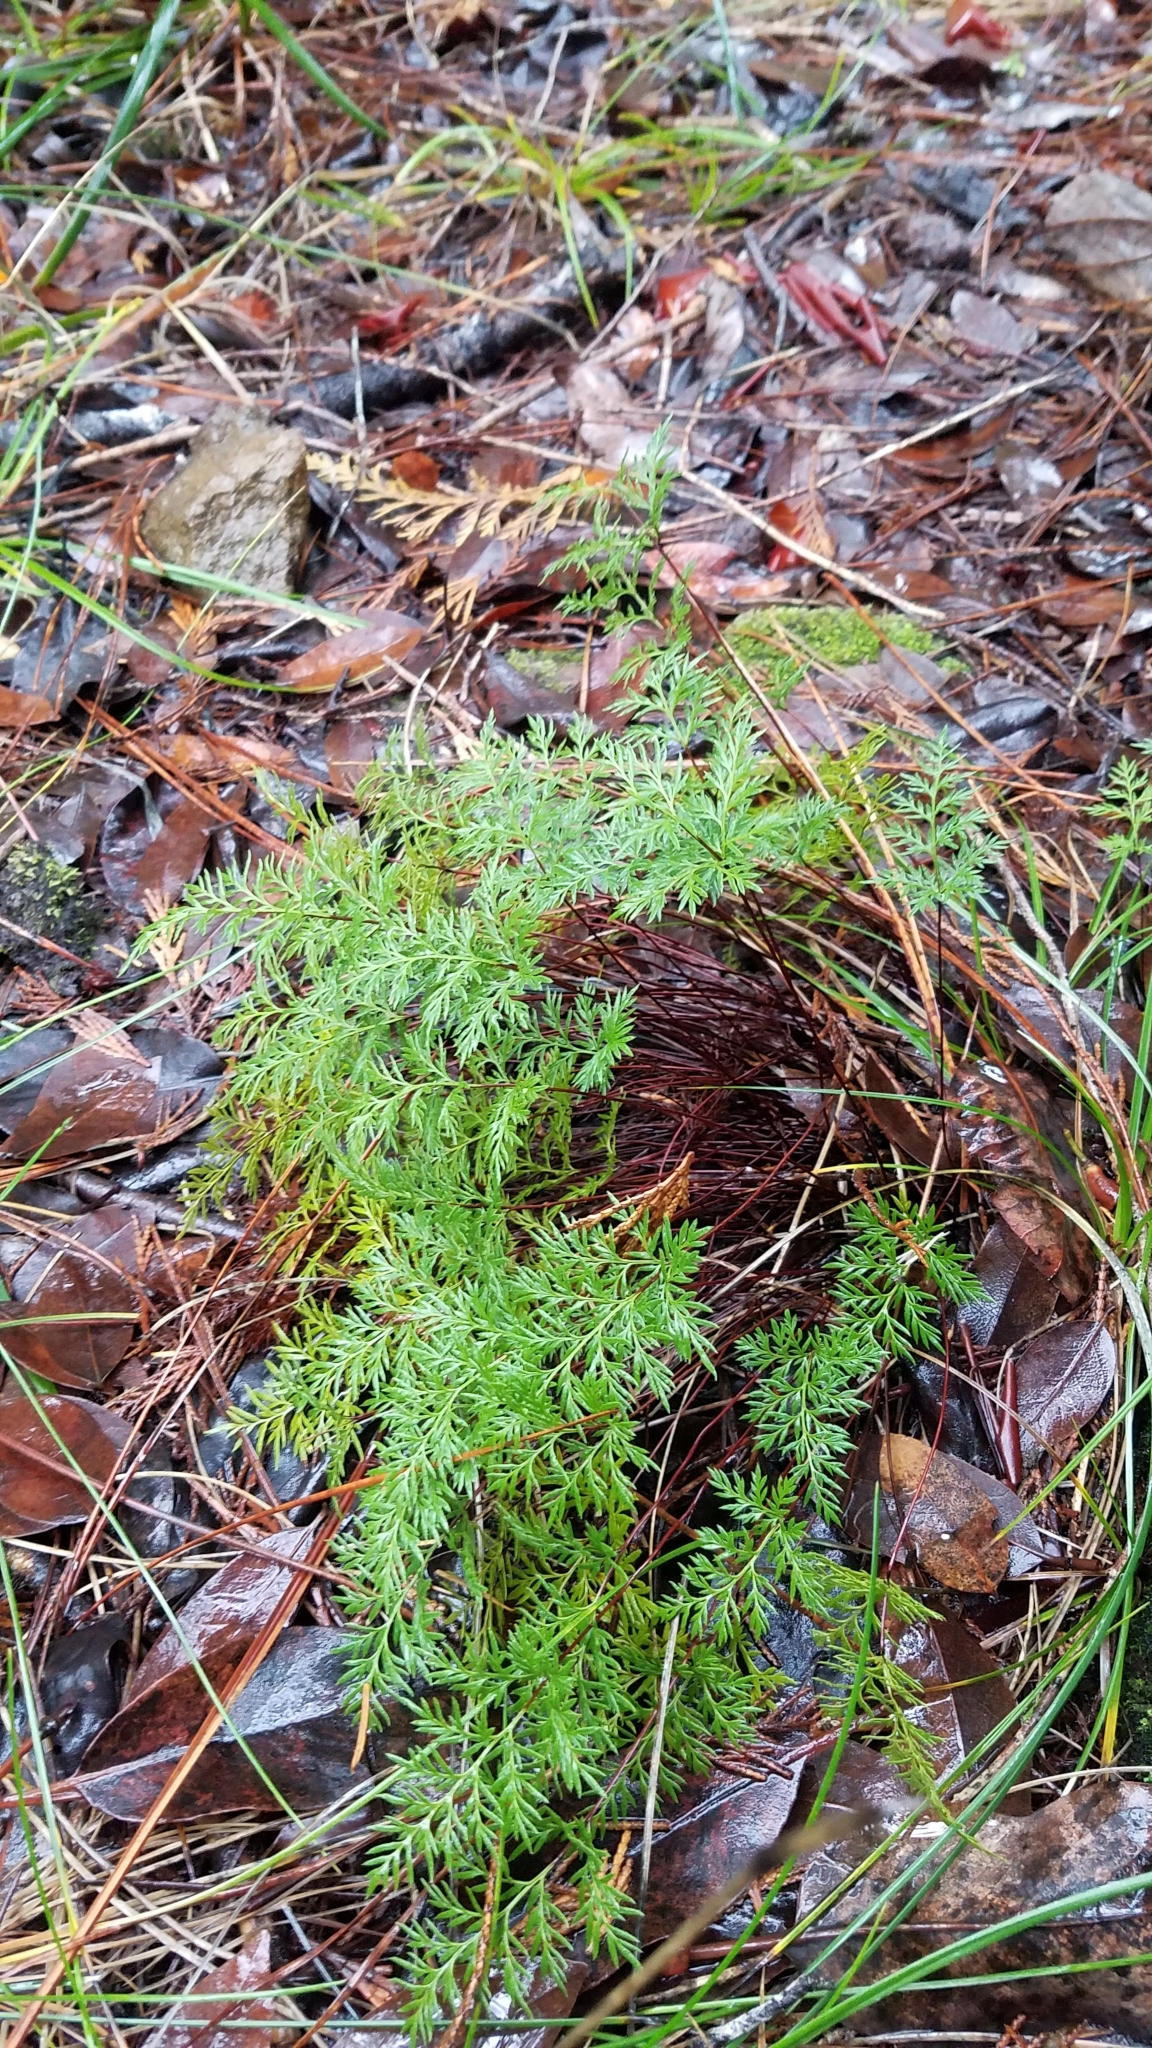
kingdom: Plantae
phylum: Tracheophyta
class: Polypodiopsida
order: Polypodiales
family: Pteridaceae
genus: Aspidotis
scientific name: Aspidotis densa
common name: Indian's dream
